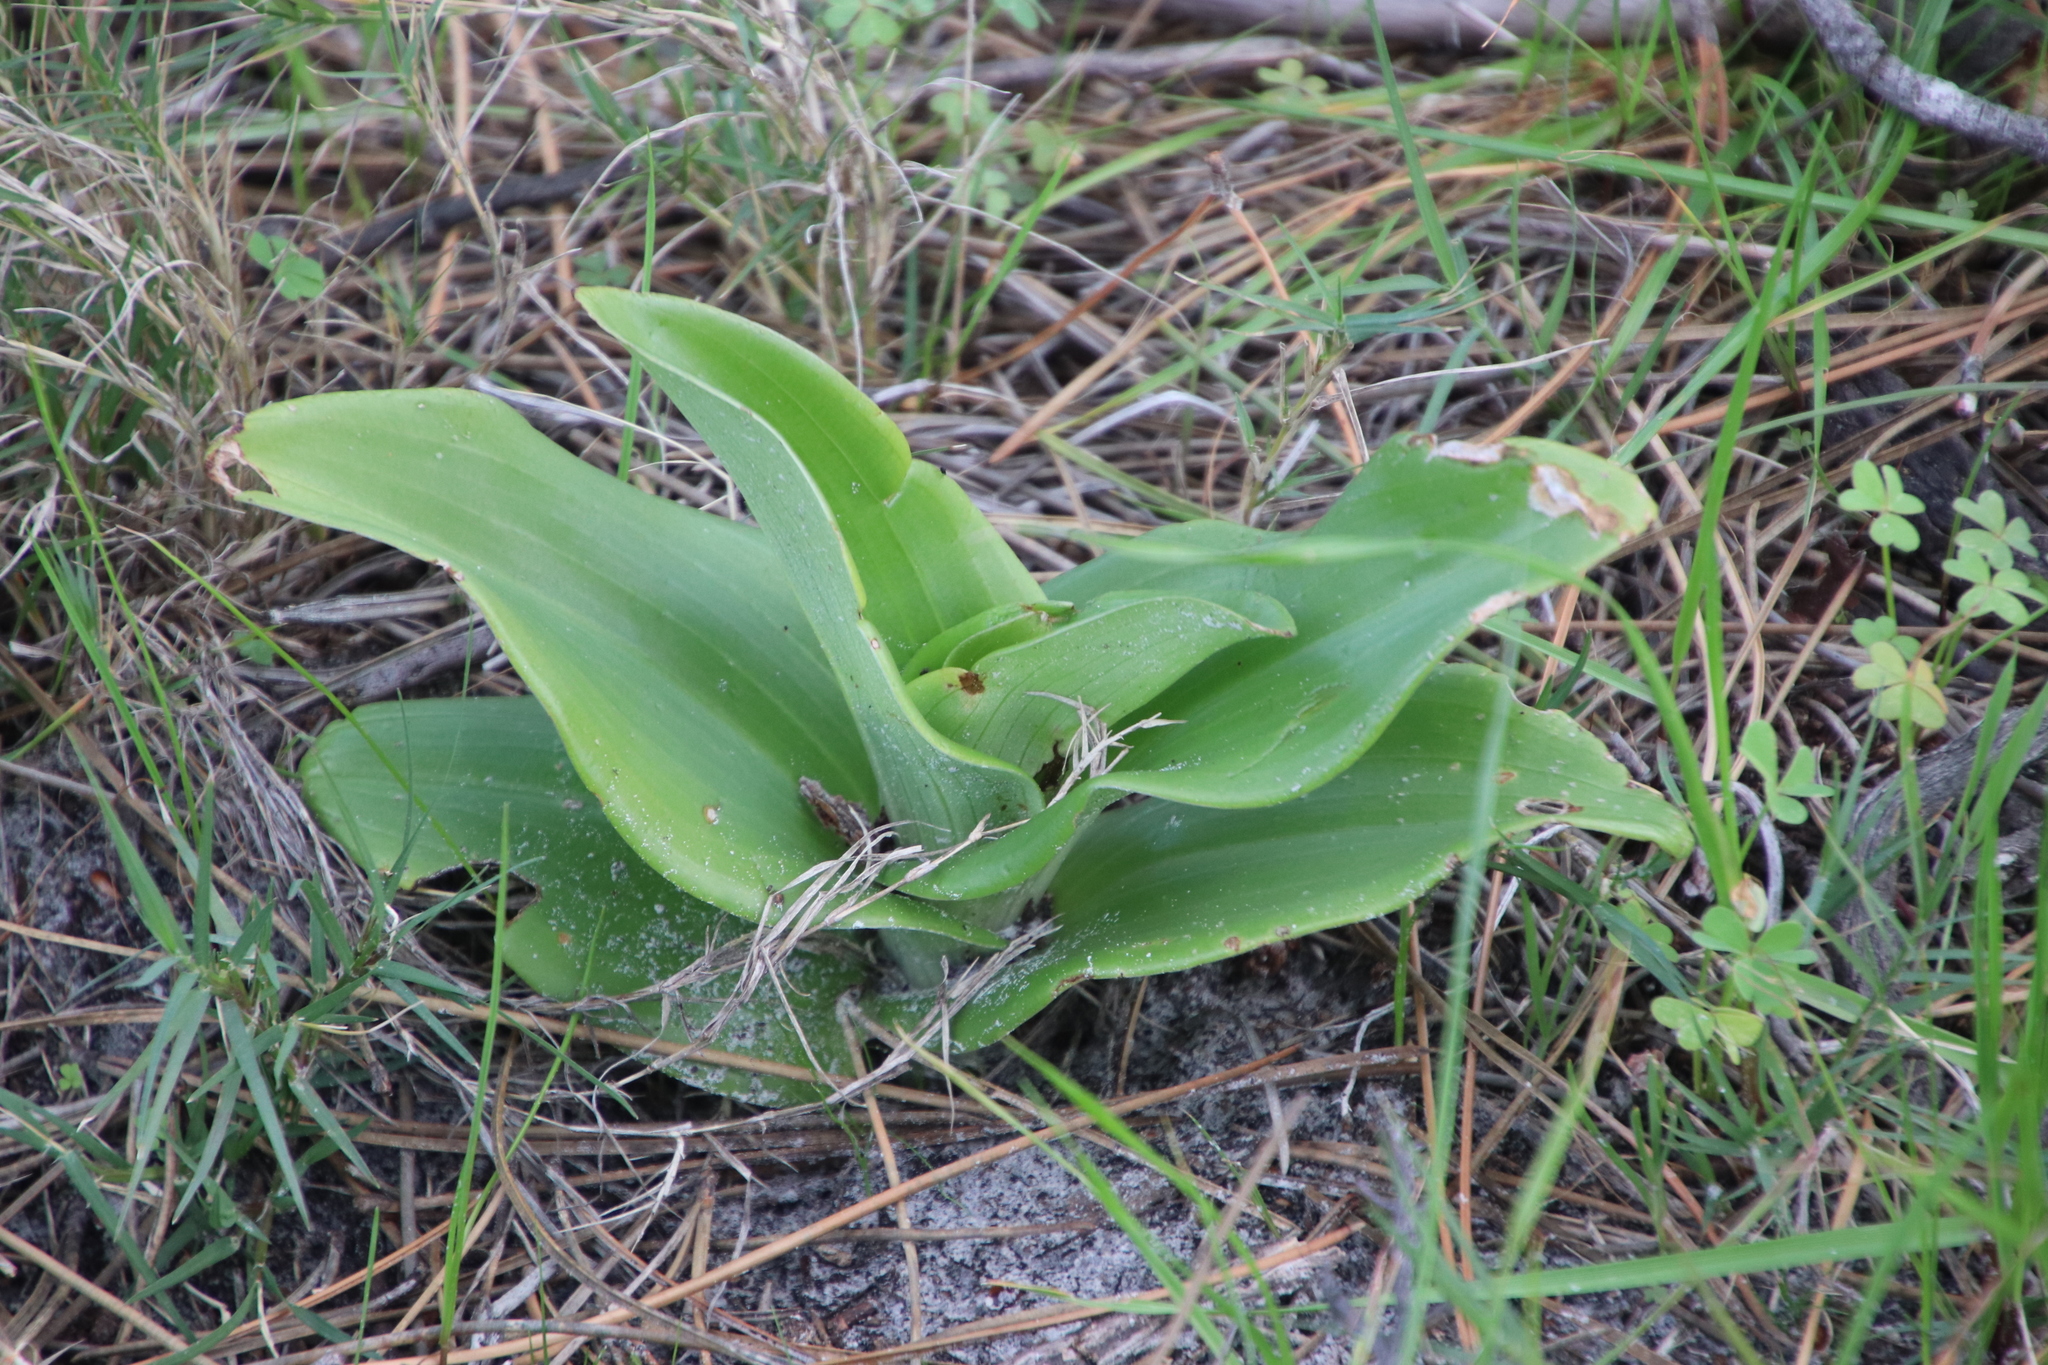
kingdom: Plantae
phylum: Tracheophyta
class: Liliopsida
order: Asparagales
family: Orchidaceae
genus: Satyrium
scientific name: Satyrium odorum
